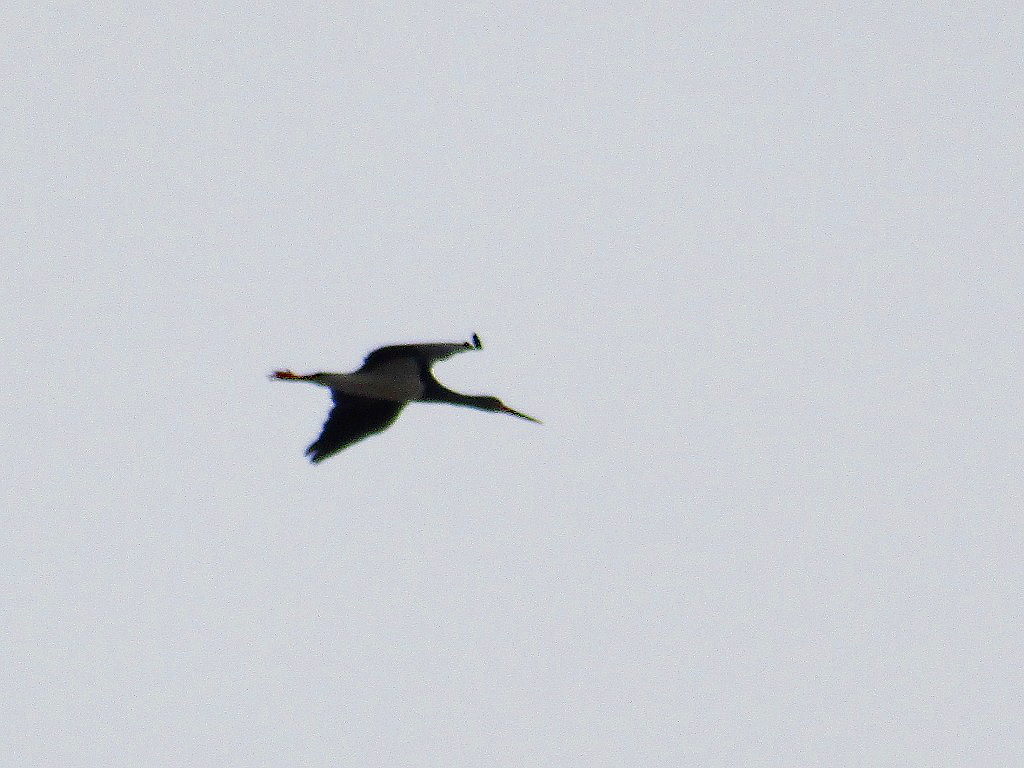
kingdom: Animalia
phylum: Chordata
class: Aves
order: Ciconiiformes
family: Ciconiidae
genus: Ciconia
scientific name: Ciconia nigra
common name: Black stork
